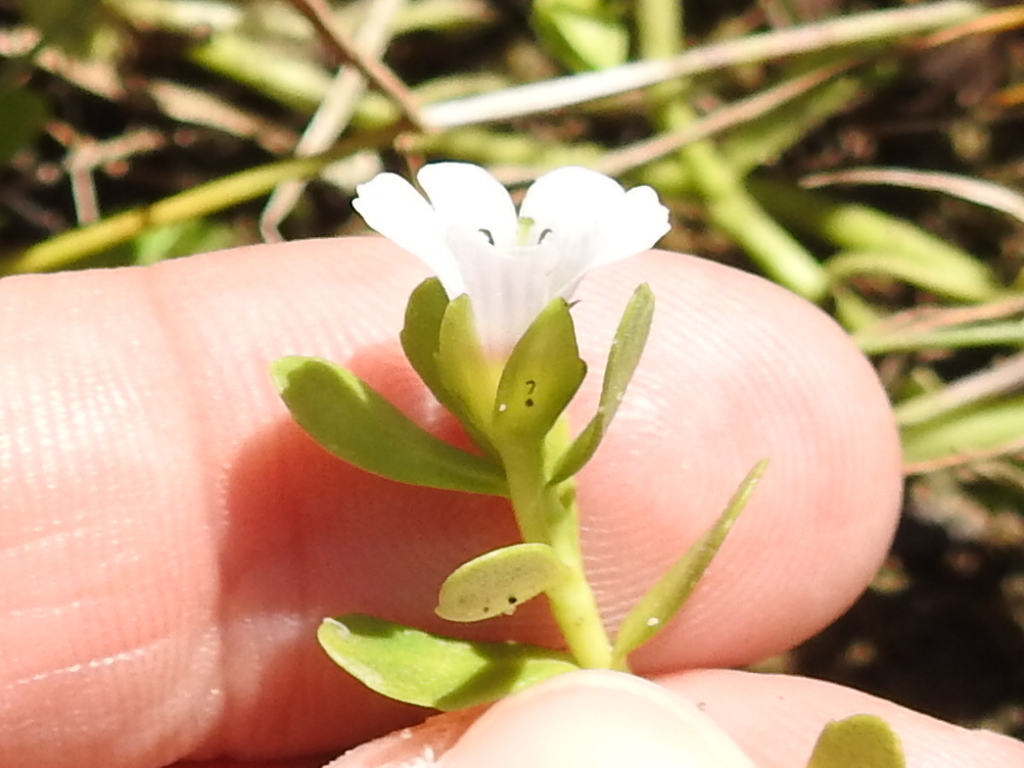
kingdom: Plantae
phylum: Tracheophyta
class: Magnoliopsida
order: Lamiales
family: Plantaginaceae
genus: Bacopa
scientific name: Bacopa monnieri
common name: Indian-pennywort
